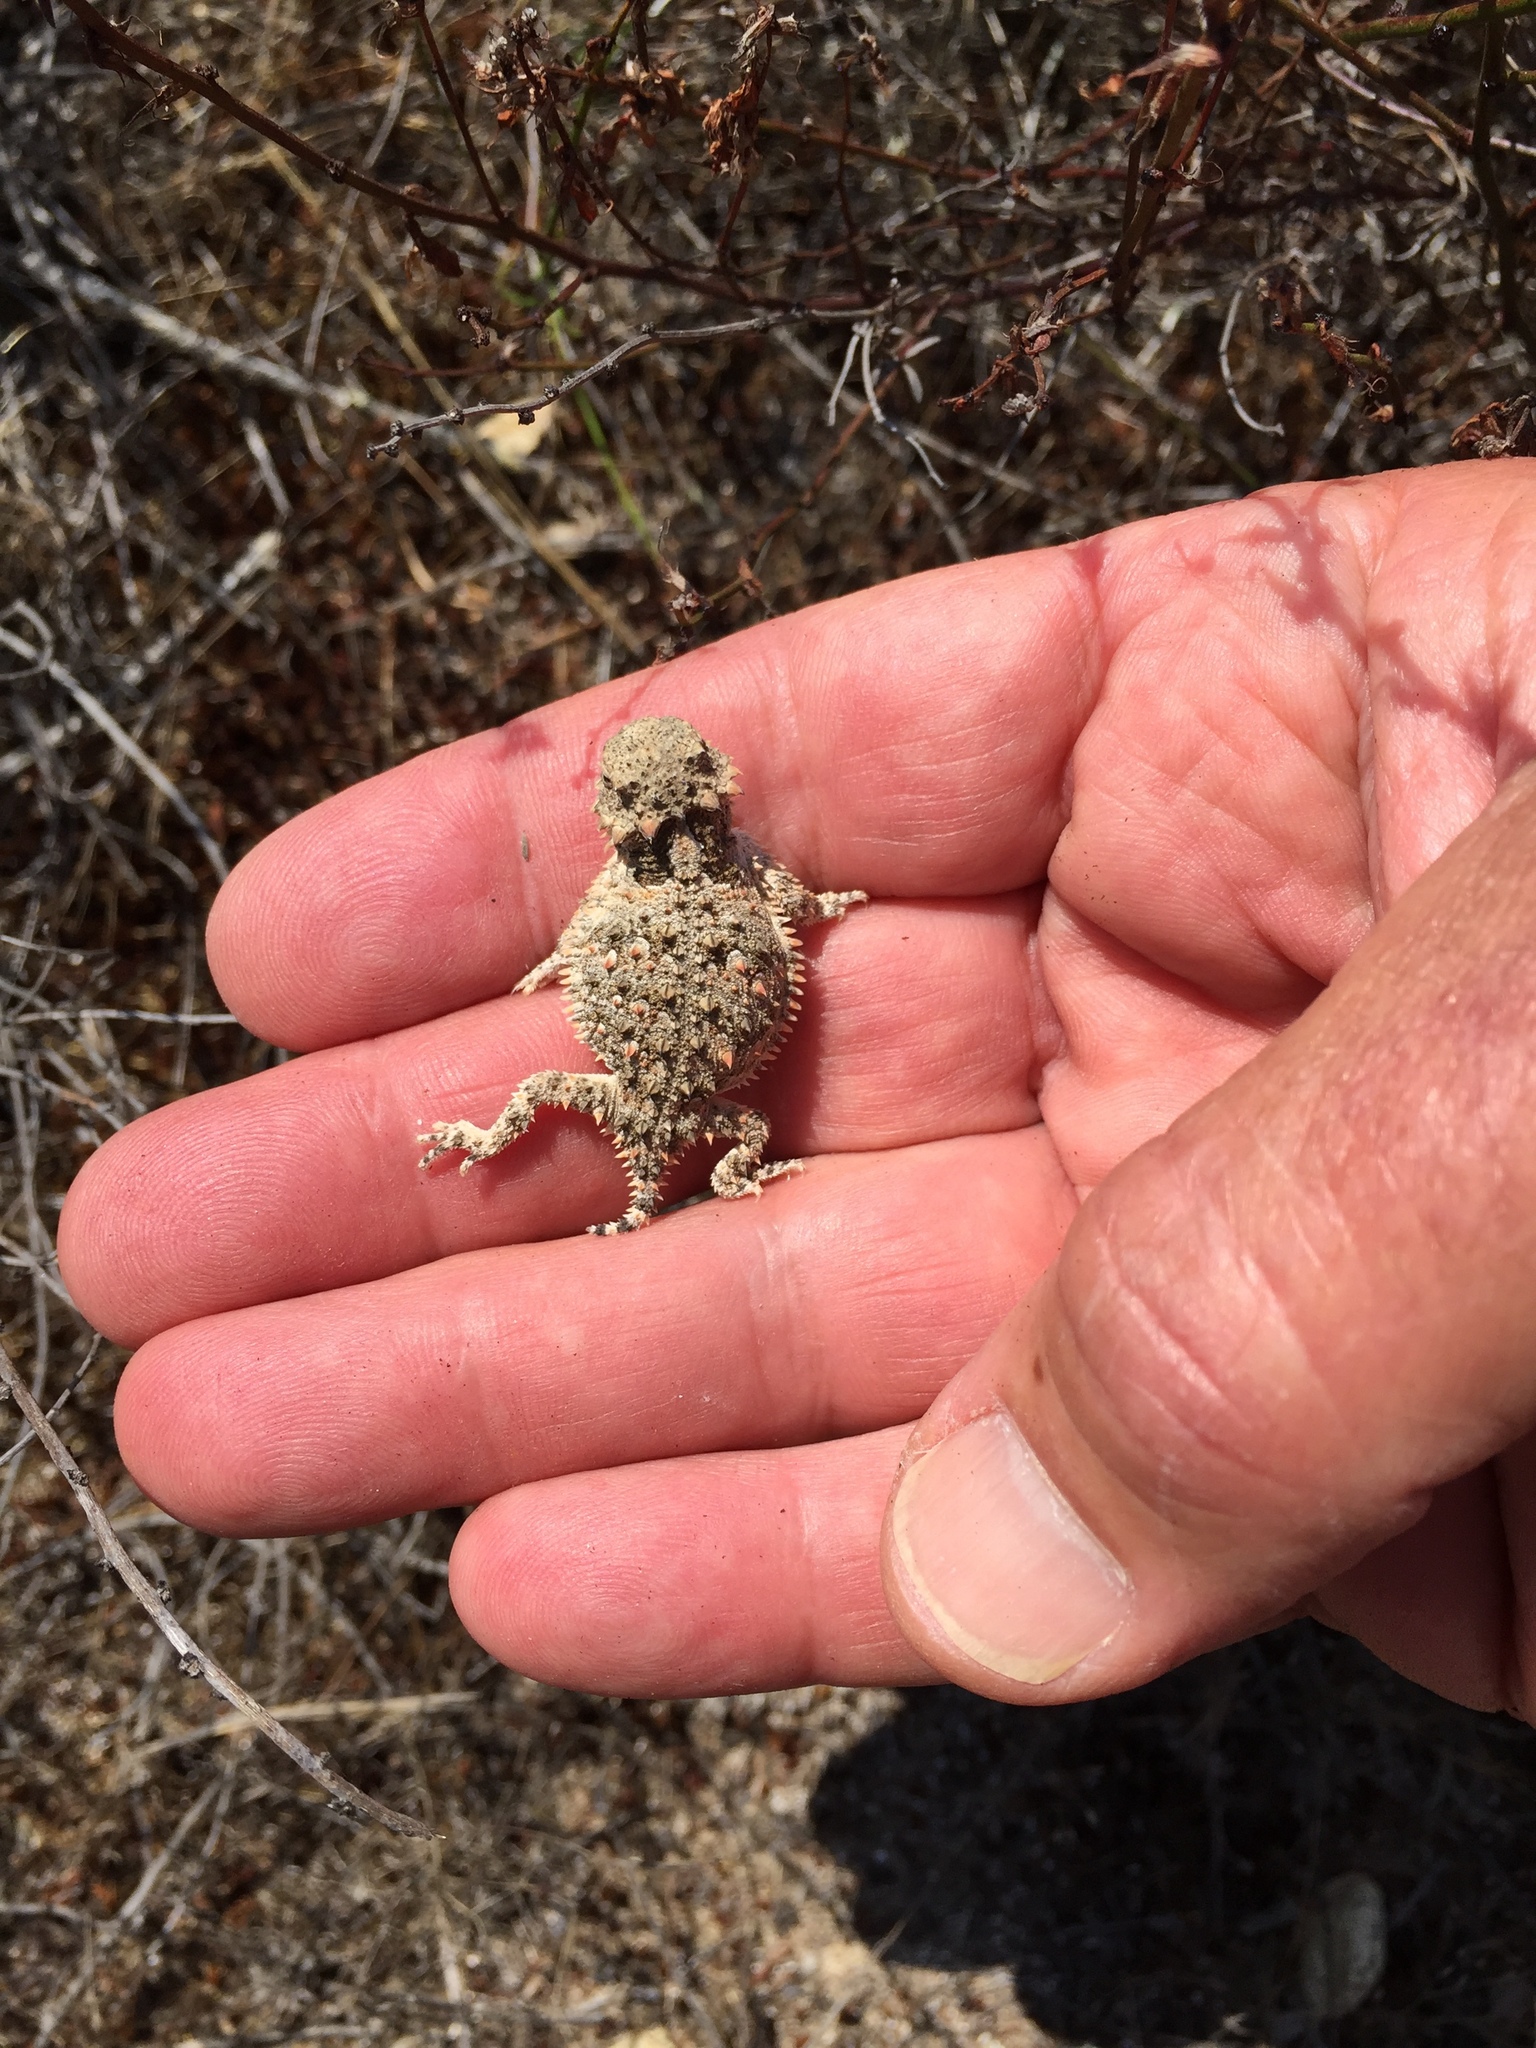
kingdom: Animalia
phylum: Chordata
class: Squamata
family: Phrynosomatidae
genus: Phrynosoma
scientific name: Phrynosoma blainvillii
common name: San diego horned lizard
